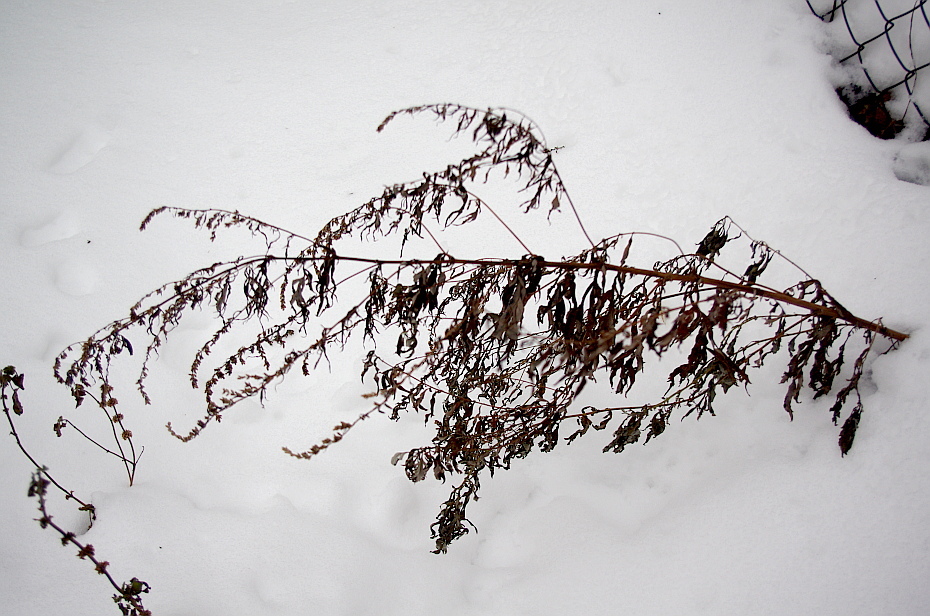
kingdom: Plantae
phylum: Tracheophyta
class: Magnoliopsida
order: Asterales
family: Asteraceae
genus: Artemisia
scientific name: Artemisia vulgaris
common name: Mugwort
